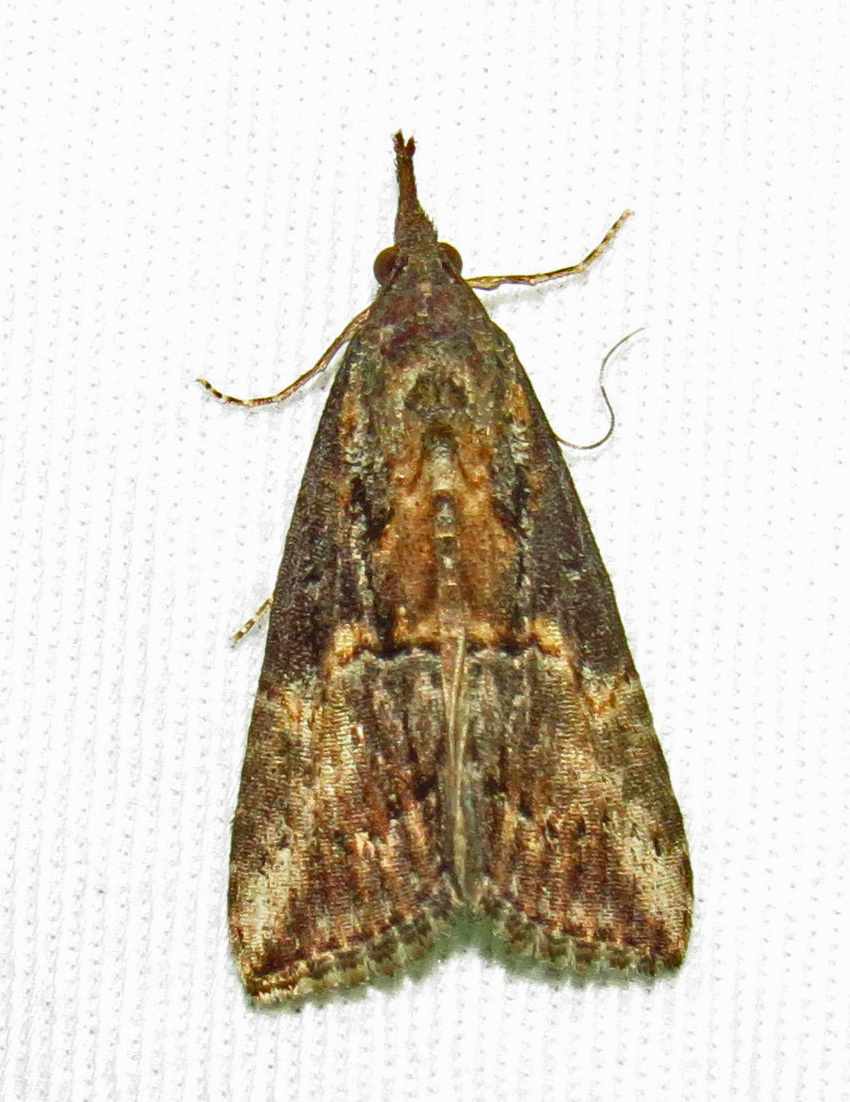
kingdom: Animalia
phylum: Arthropoda
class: Insecta
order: Lepidoptera
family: Erebidae
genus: Hypena
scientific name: Hypena scabra
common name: Green cloverworm
